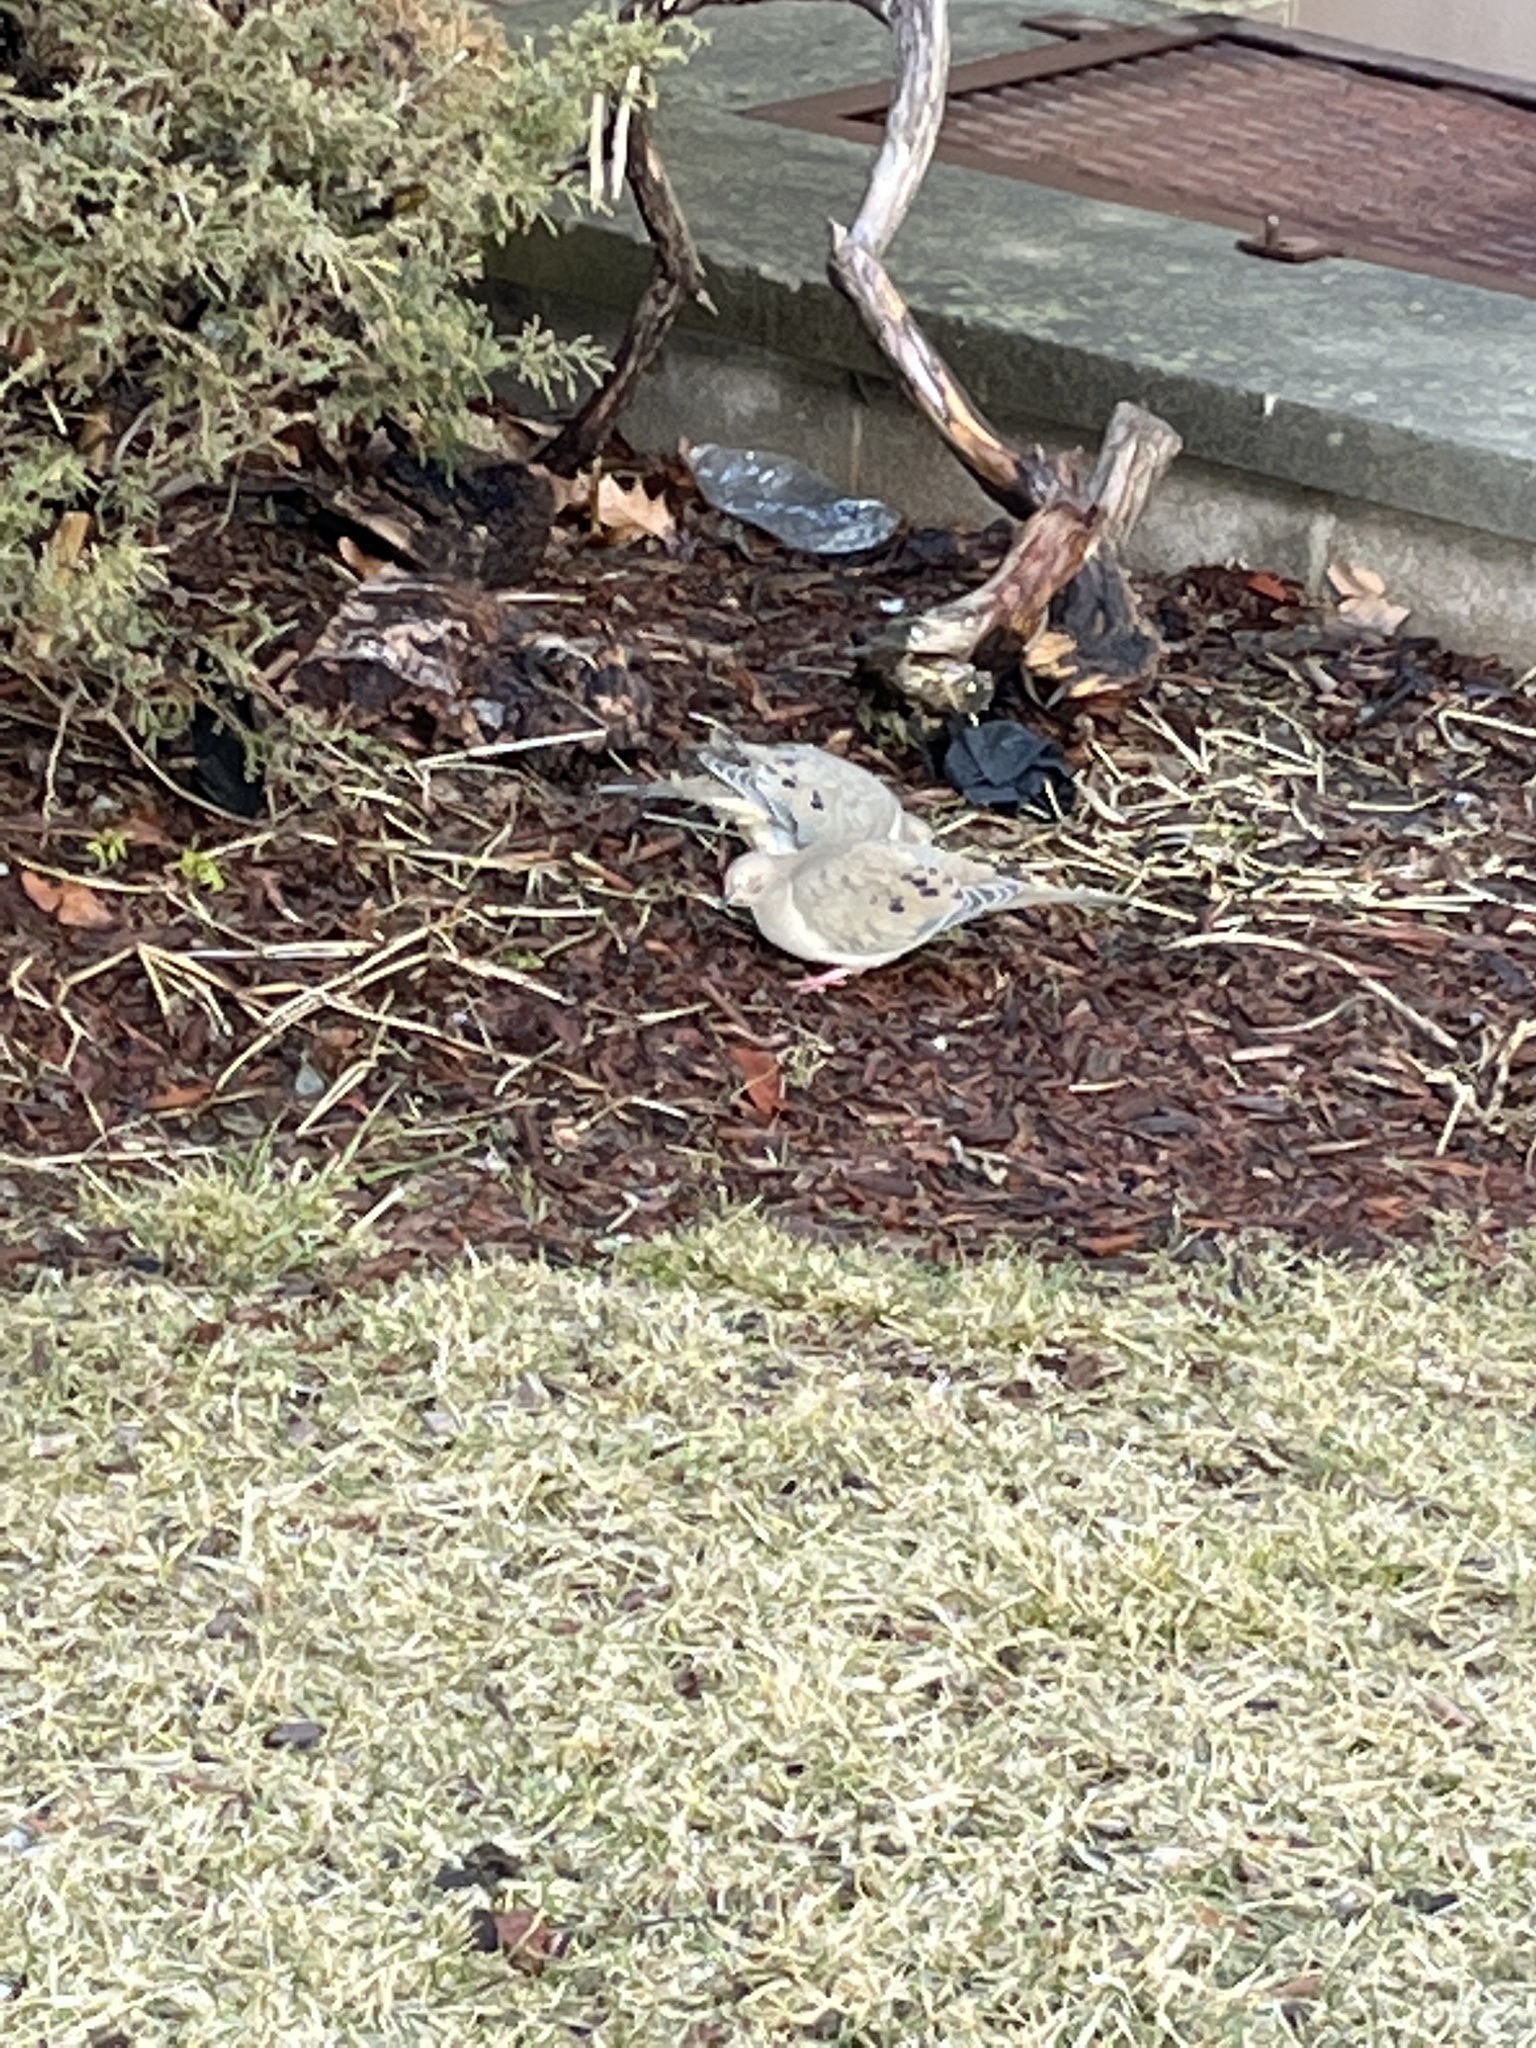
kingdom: Animalia
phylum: Chordata
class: Aves
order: Columbiformes
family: Columbidae
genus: Zenaida
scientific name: Zenaida macroura
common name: Mourning dove
